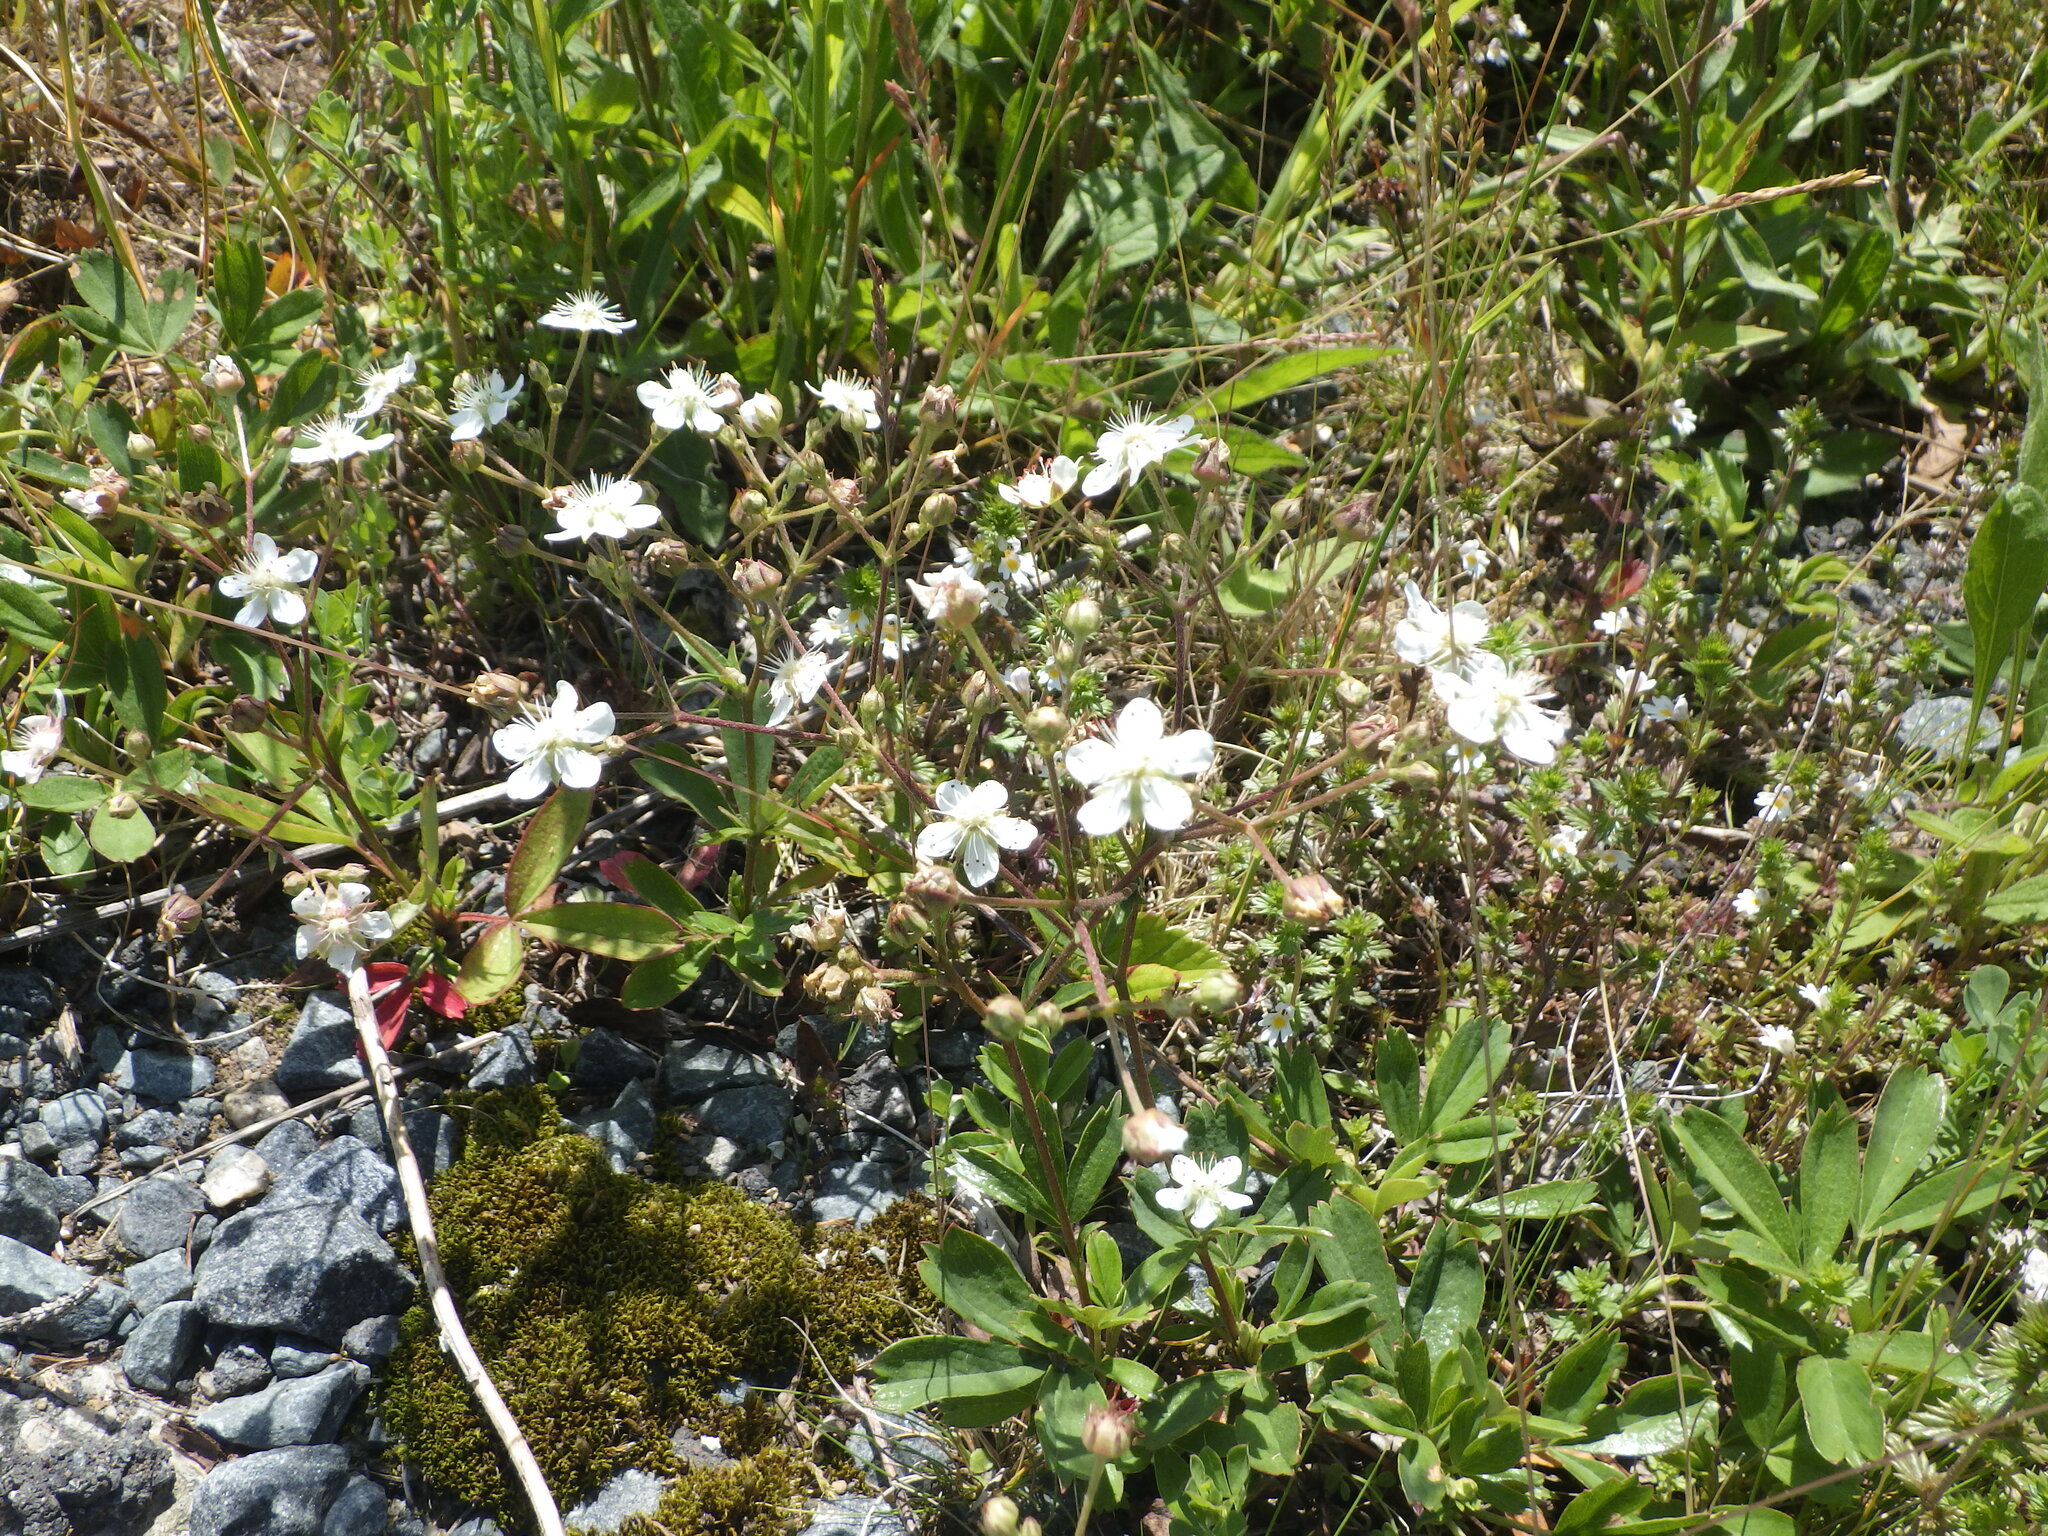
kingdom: Plantae
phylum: Tracheophyta
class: Magnoliopsida
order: Rosales
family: Rosaceae
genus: Sibbaldia
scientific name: Sibbaldia tridentata
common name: Three-toothed cinquefoil
